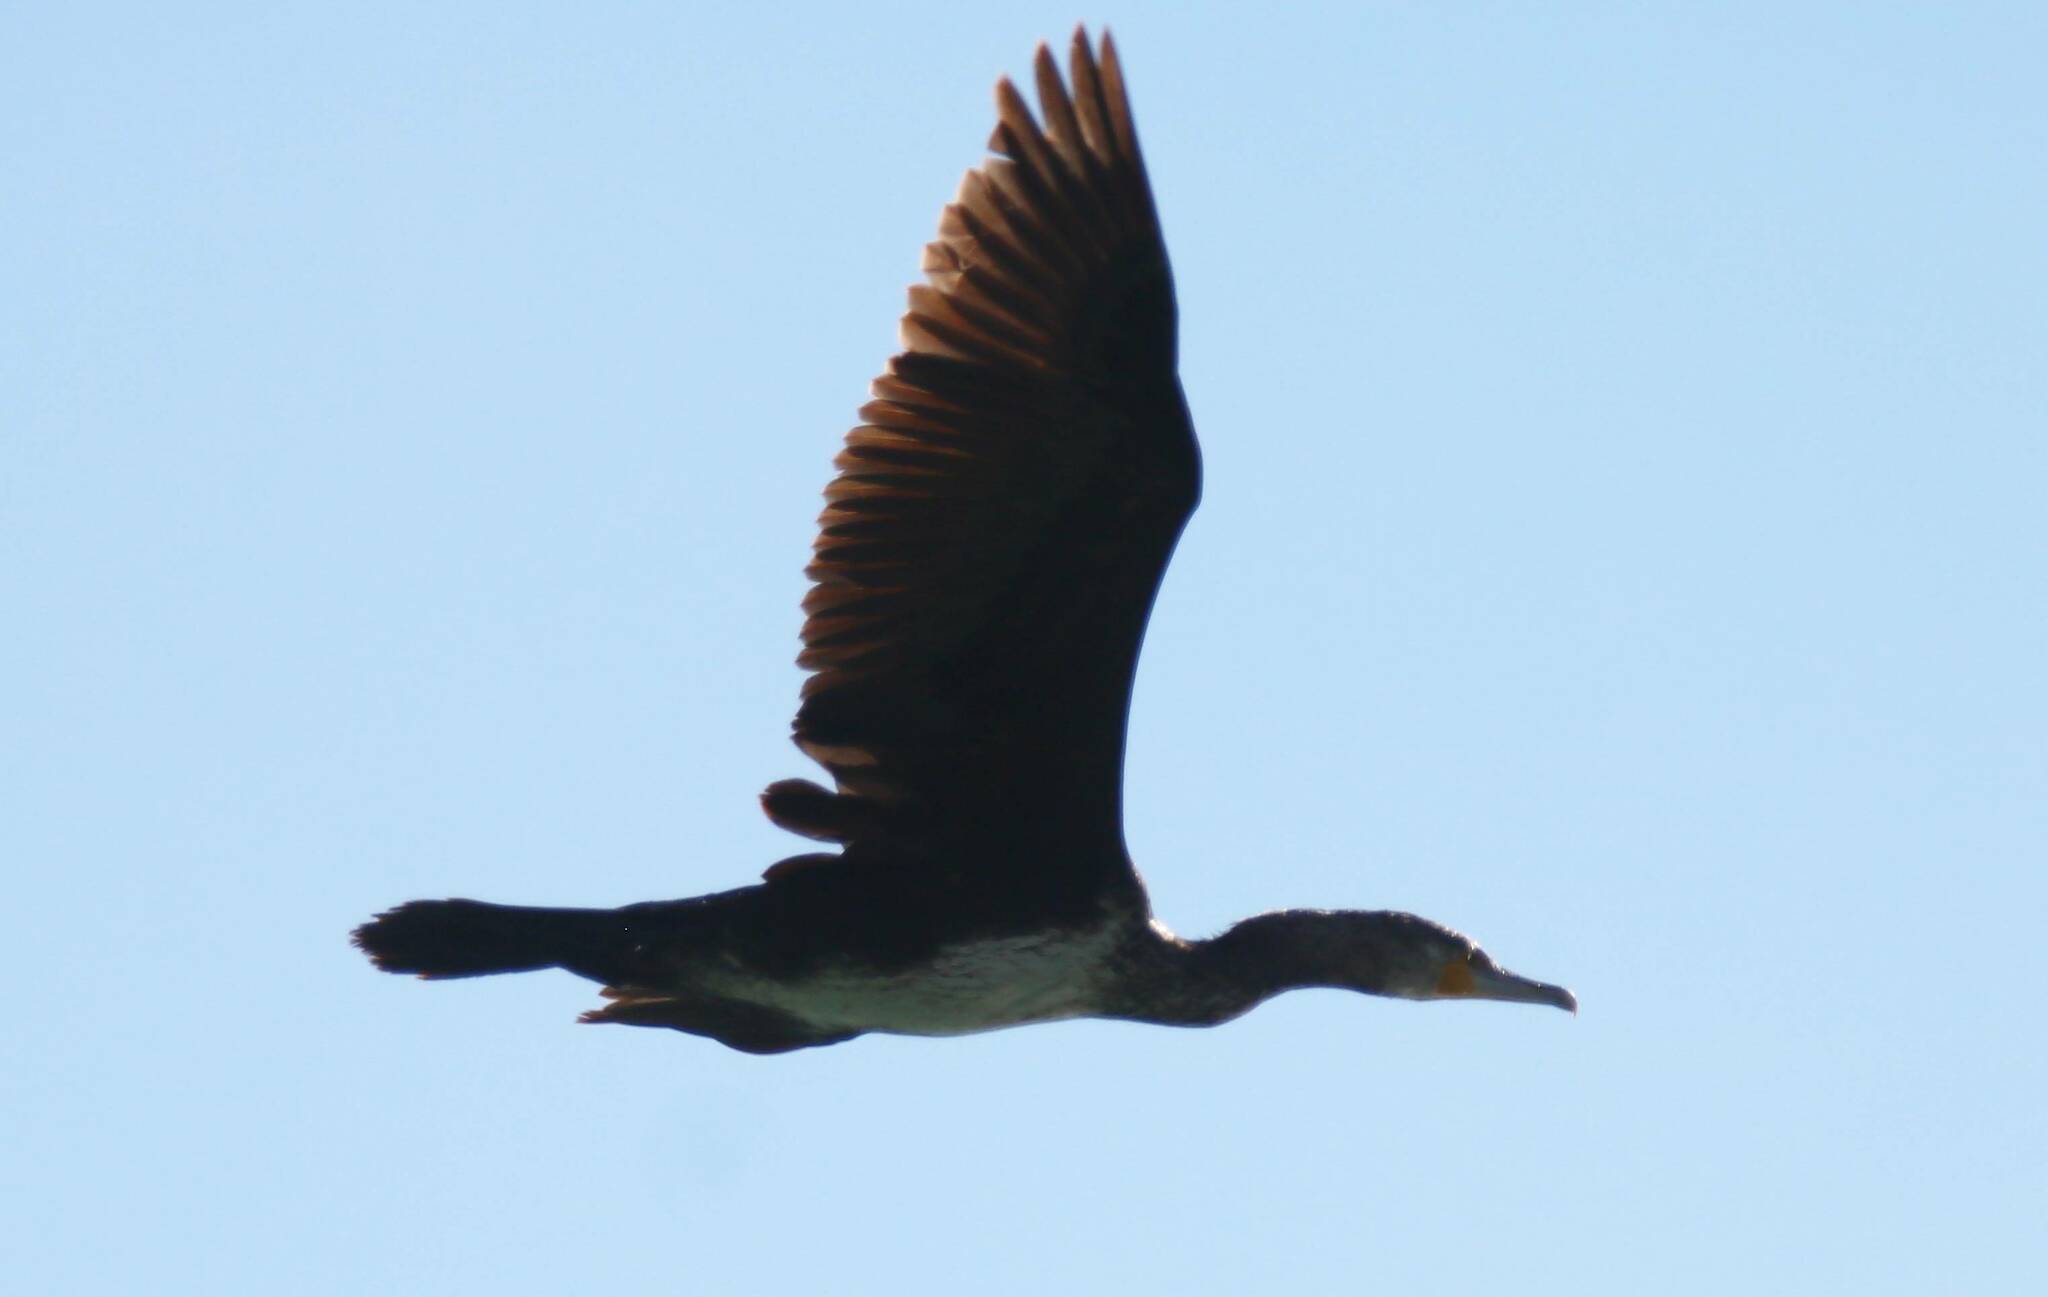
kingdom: Animalia
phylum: Chordata
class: Aves
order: Suliformes
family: Phalacrocoracidae
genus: Phalacrocorax
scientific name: Phalacrocorax carbo
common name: Great cormorant
